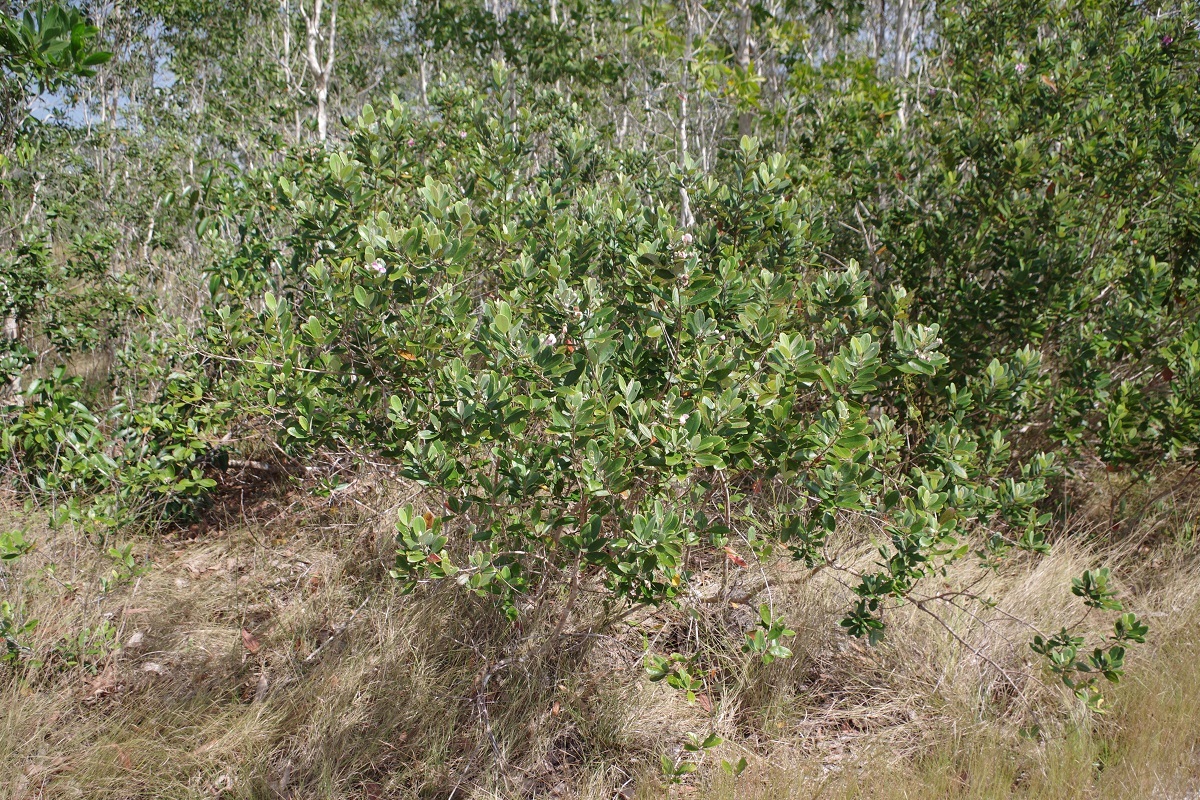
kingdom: Plantae
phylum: Tracheophyta
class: Magnoliopsida
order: Myrtales
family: Myrtaceae
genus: Rhodomyrtus
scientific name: Rhodomyrtus tomentosa
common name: Rose myrtle
